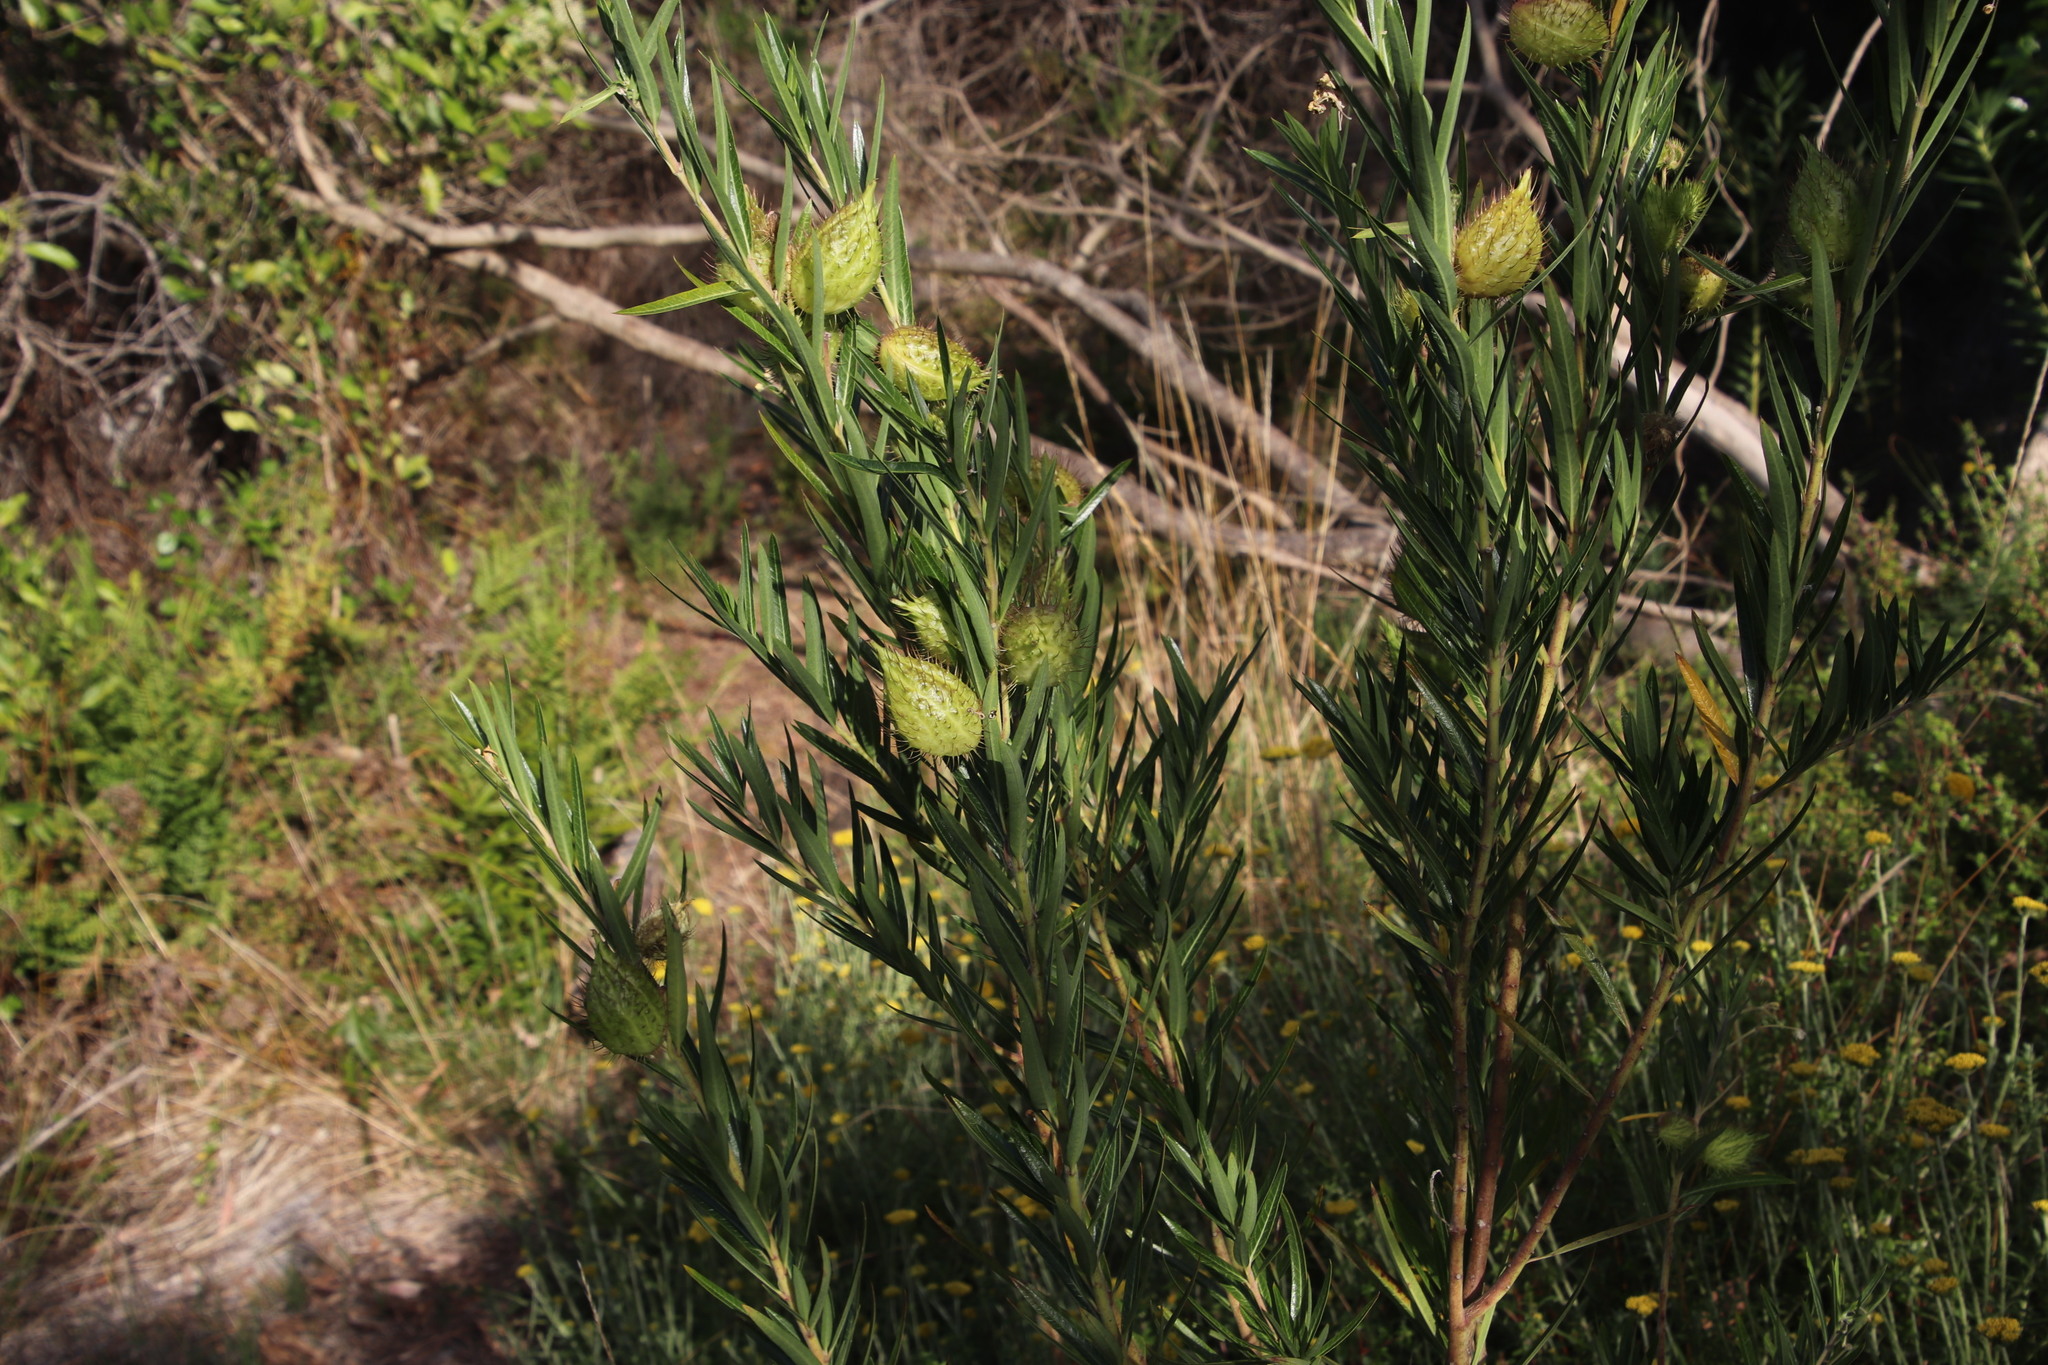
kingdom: Plantae
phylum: Tracheophyta
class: Magnoliopsida
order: Gentianales
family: Apocynaceae
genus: Gomphocarpus
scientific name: Gomphocarpus fruticosus
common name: Milkweed
